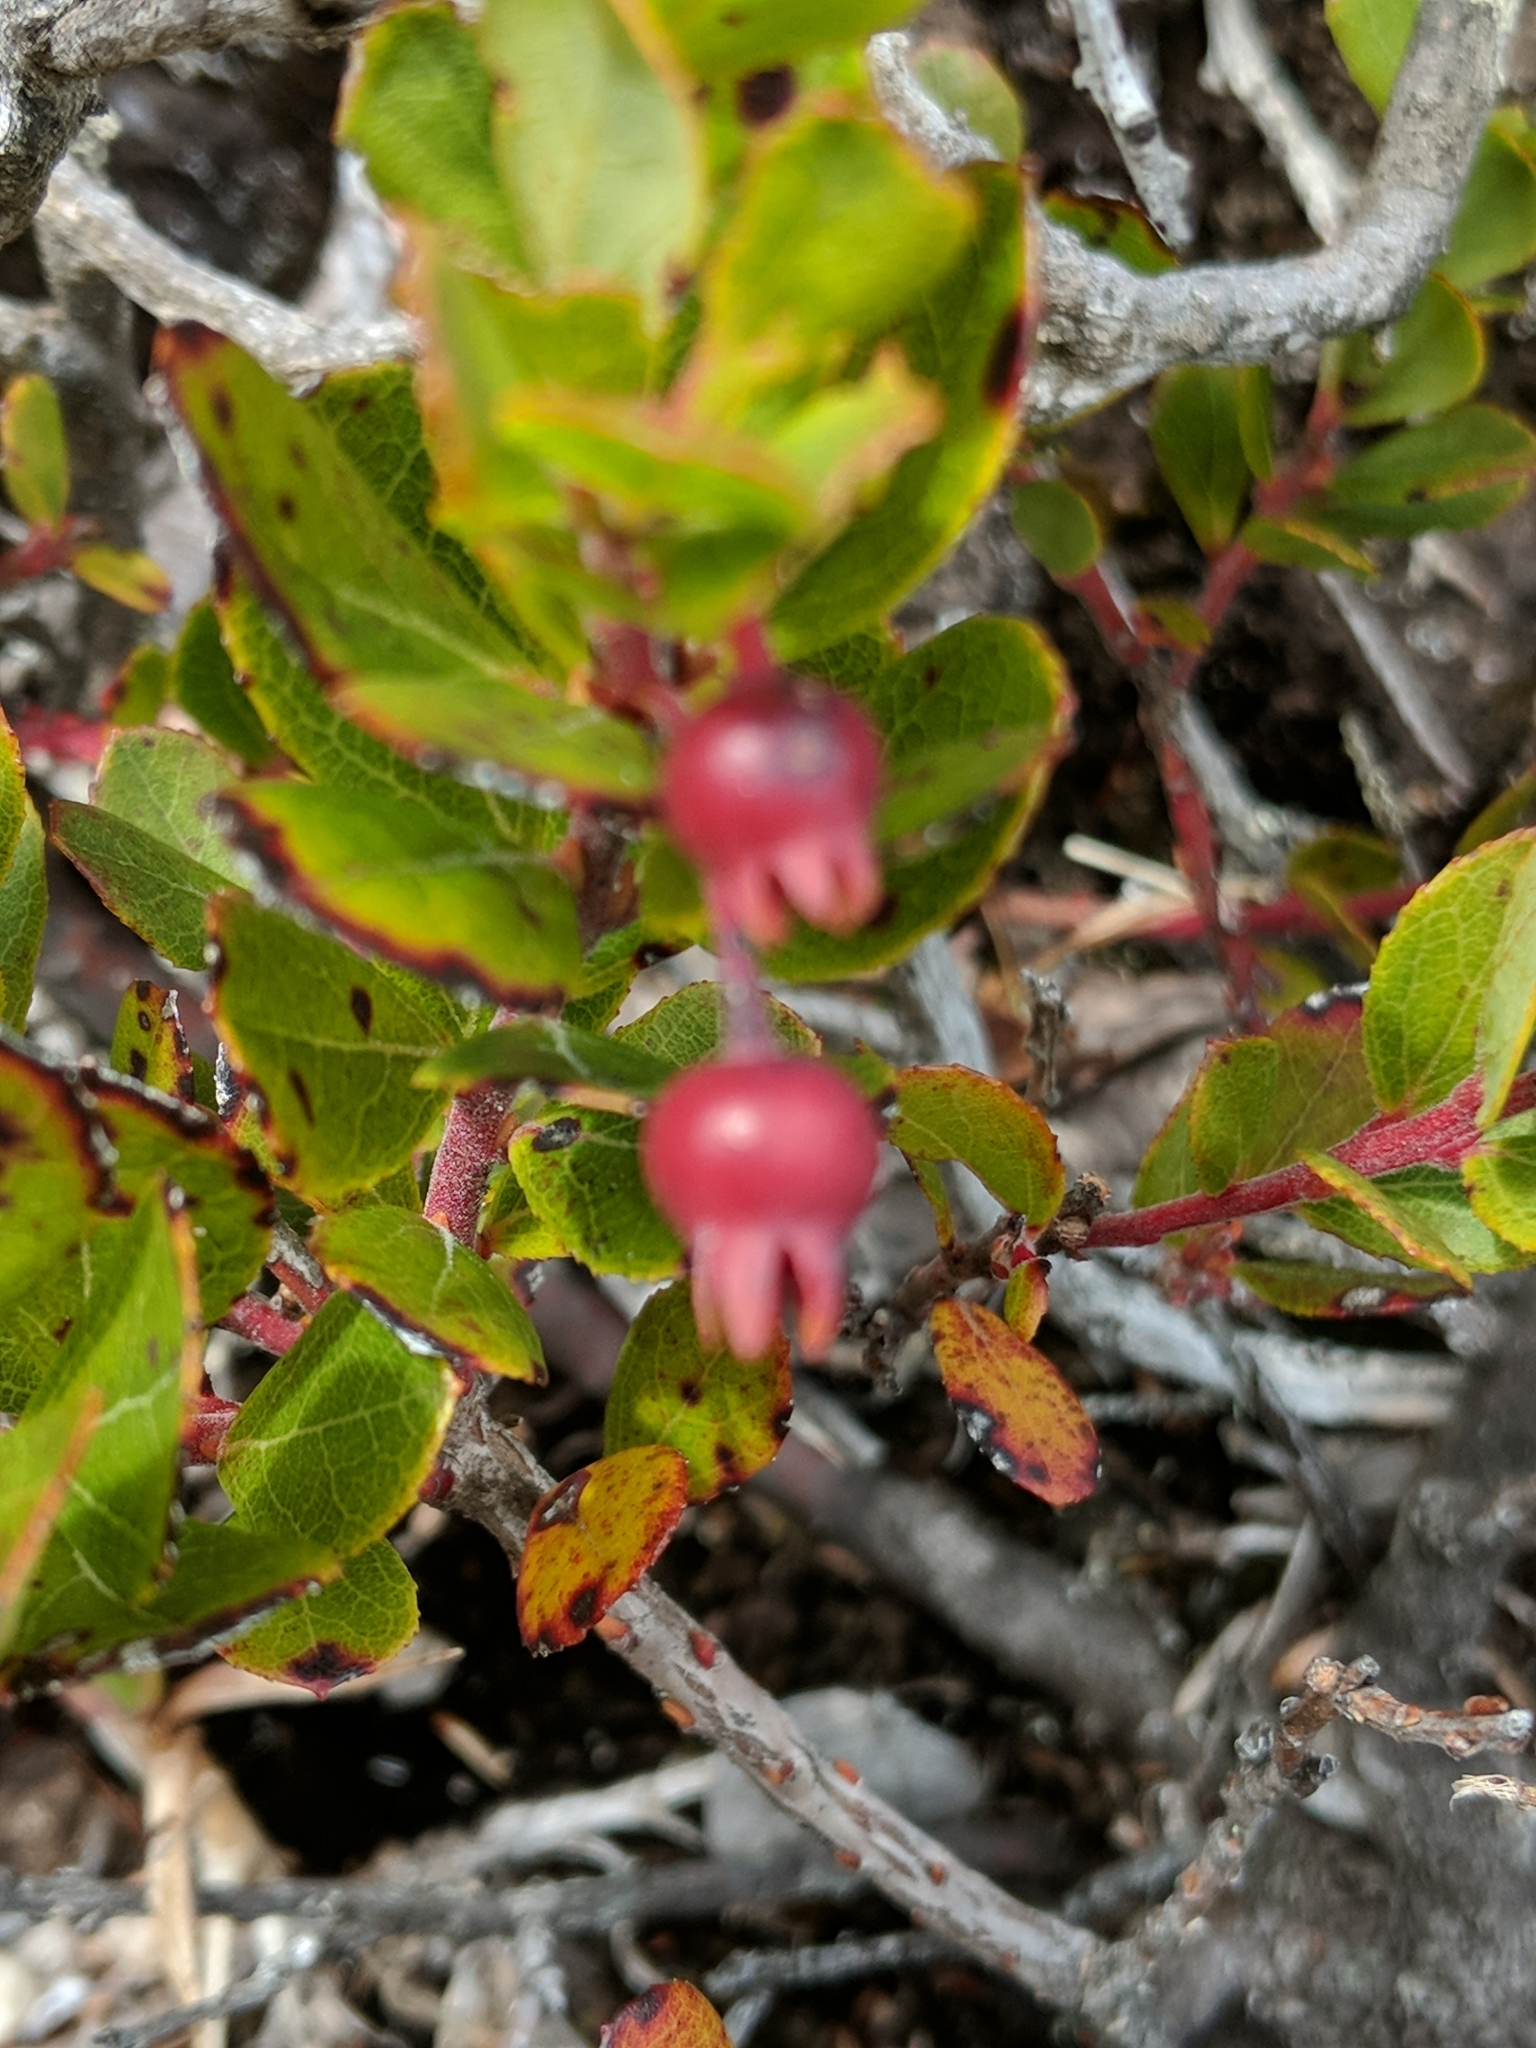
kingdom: Plantae
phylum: Tracheophyta
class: Magnoliopsida
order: Ericales
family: Ericaceae
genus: Vaccinium
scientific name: Vaccinium reticulatum
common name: Ohelo
